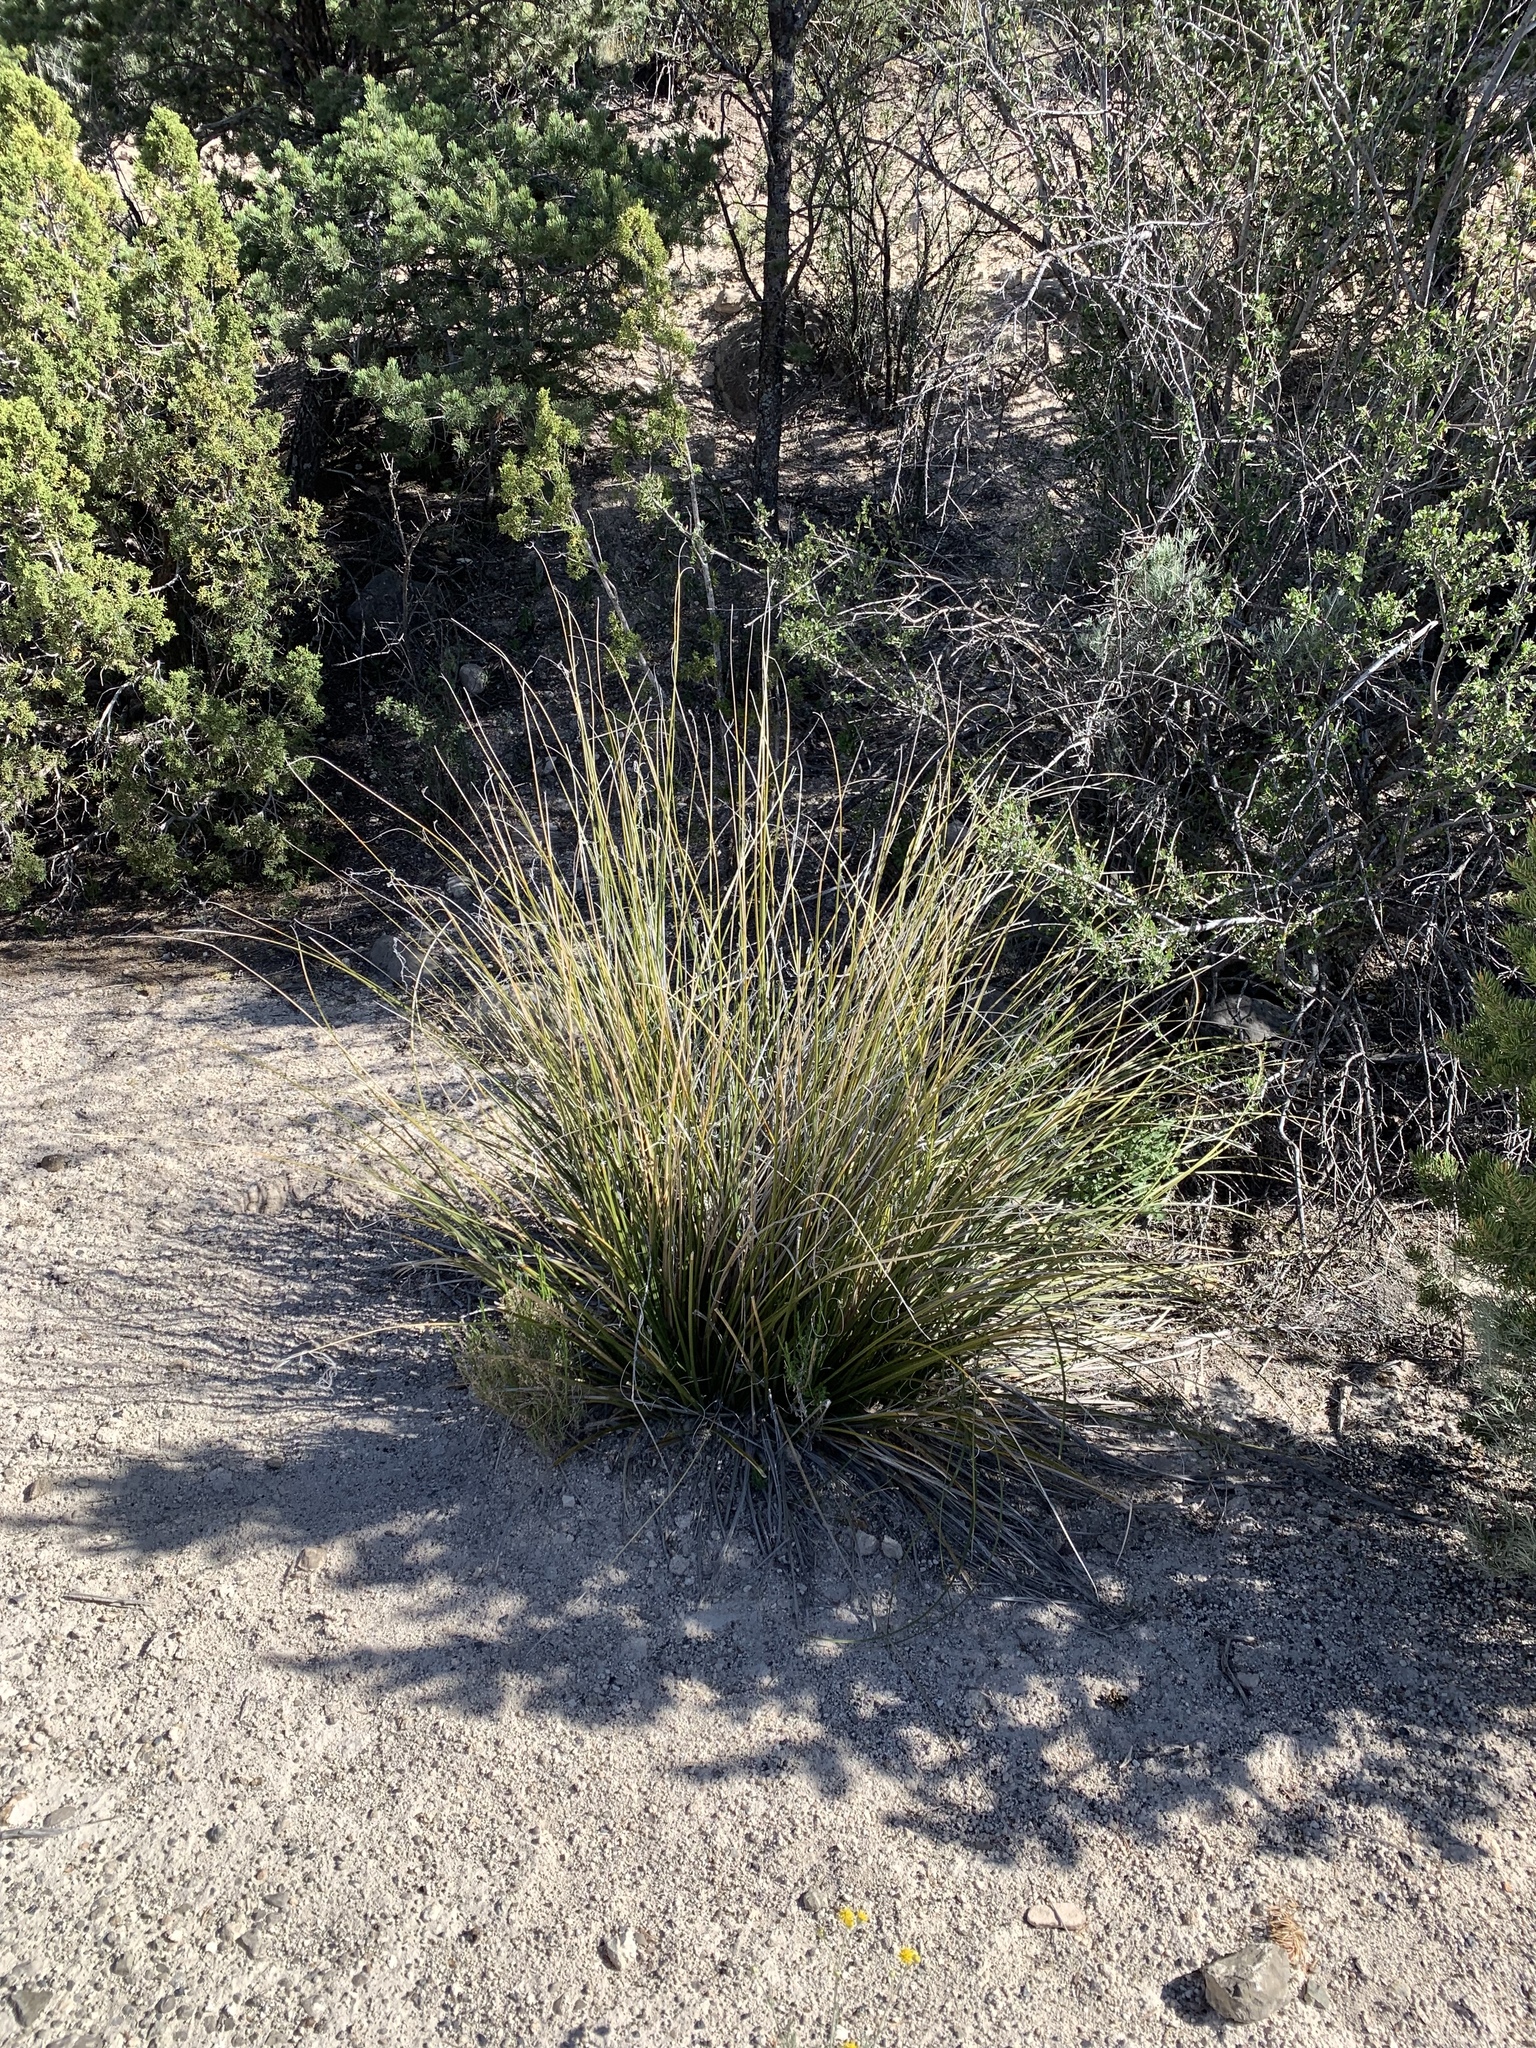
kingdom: Plantae
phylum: Tracheophyta
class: Liliopsida
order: Asparagales
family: Asparagaceae
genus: Nolina
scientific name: Nolina microcarpa
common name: Bear-grass
